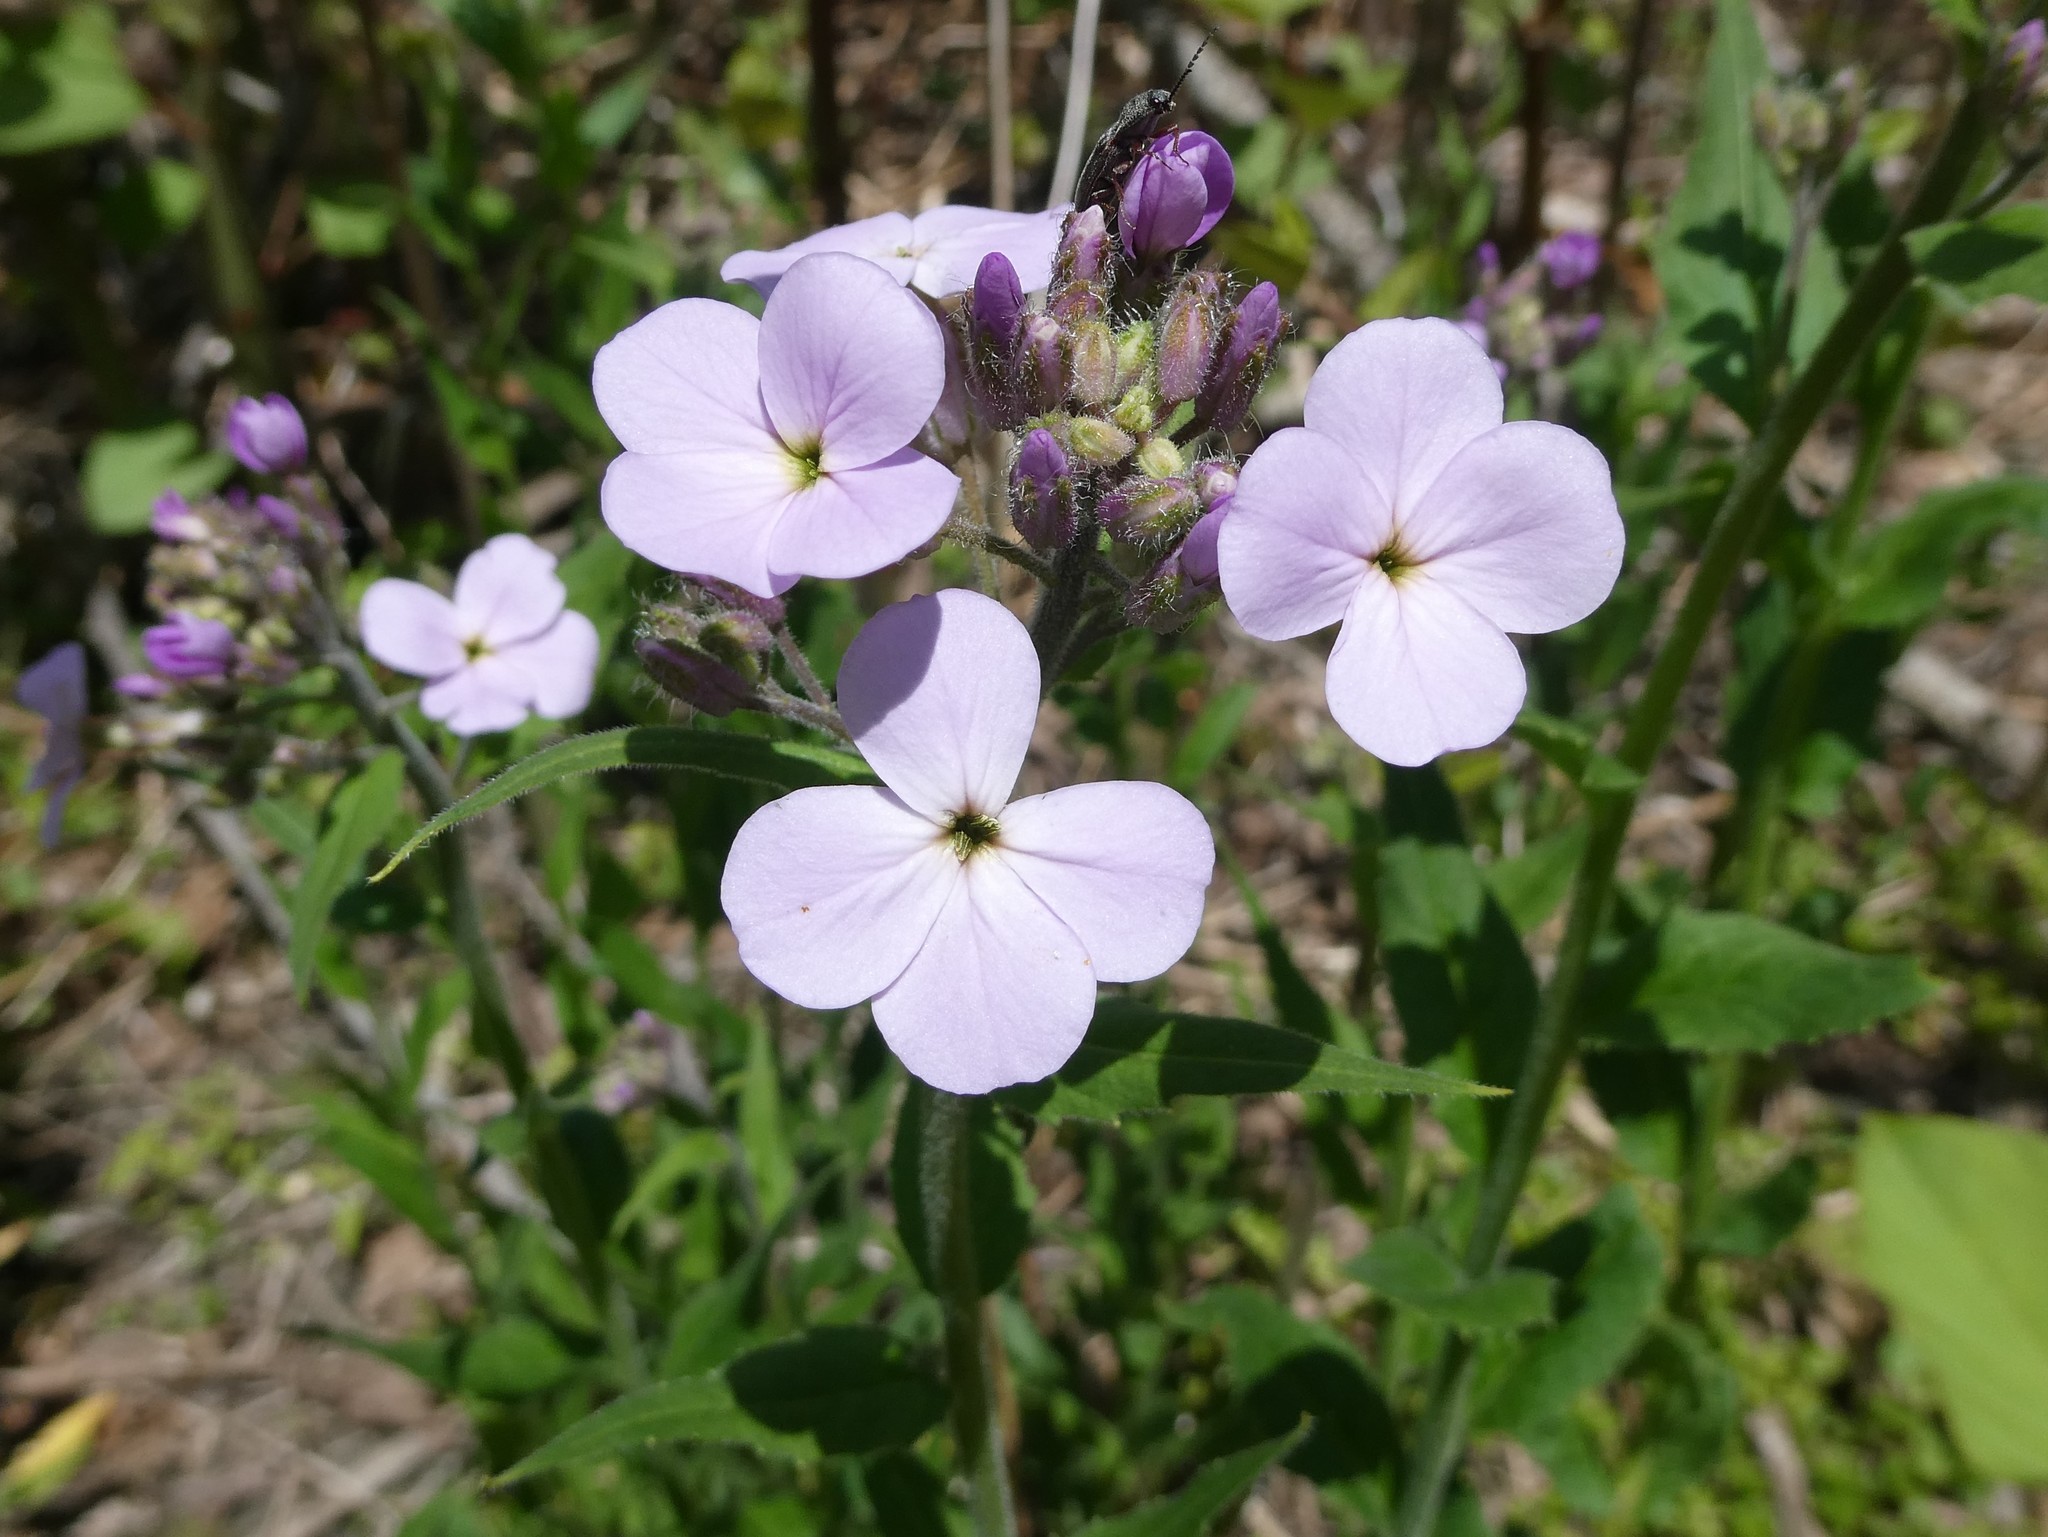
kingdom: Plantae
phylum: Tracheophyta
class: Magnoliopsida
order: Brassicales
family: Brassicaceae
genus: Hesperis
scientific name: Hesperis matronalis
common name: Dame's-violet
